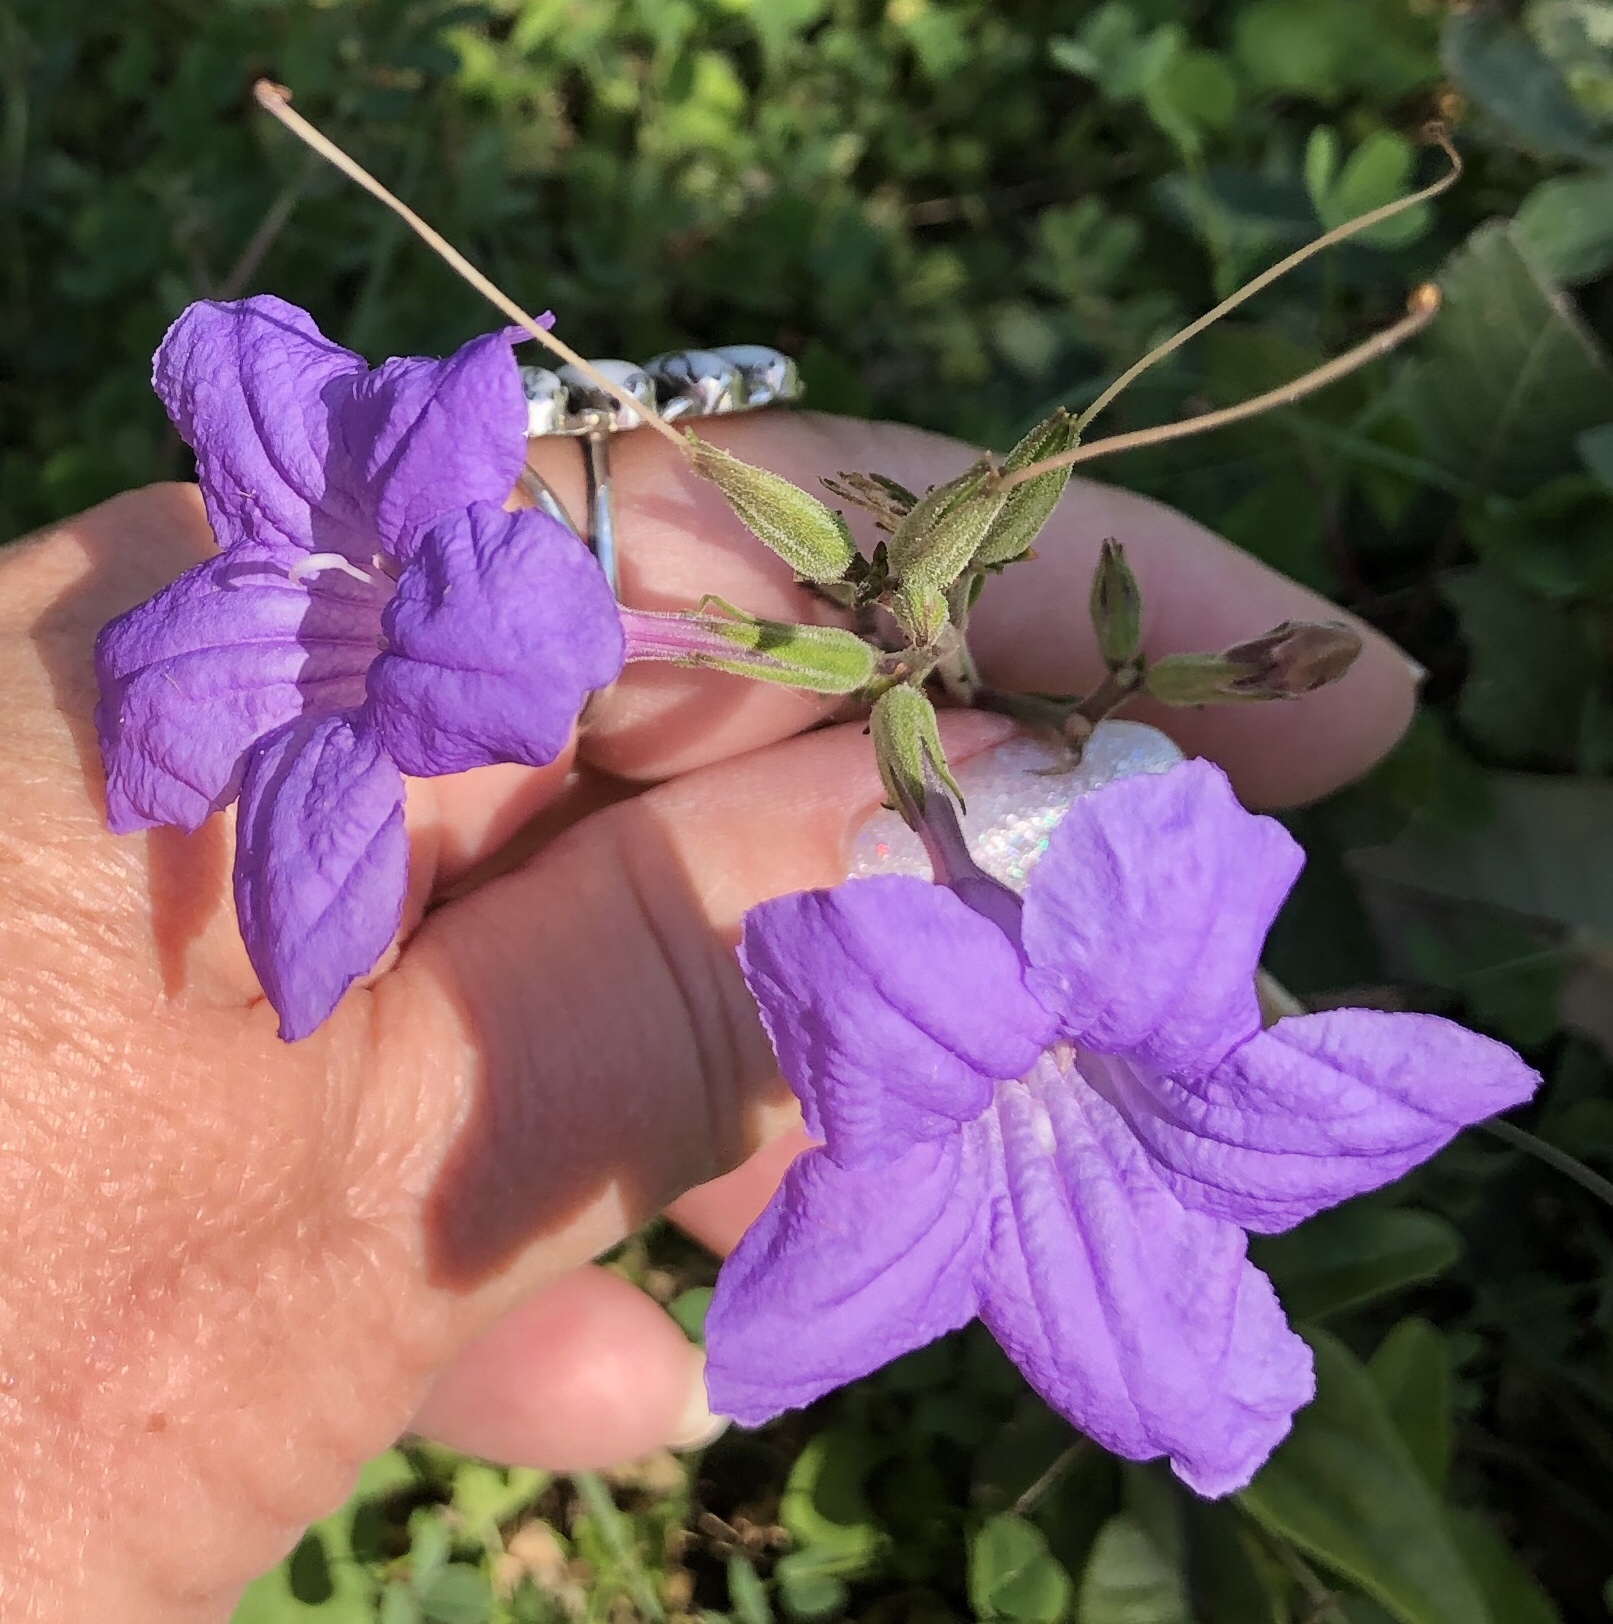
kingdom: Plantae
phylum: Tracheophyta
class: Magnoliopsida
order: Lamiales
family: Acanthaceae
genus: Ruellia
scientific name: Ruellia ciliatiflora
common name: Hairyflower wild petunia
